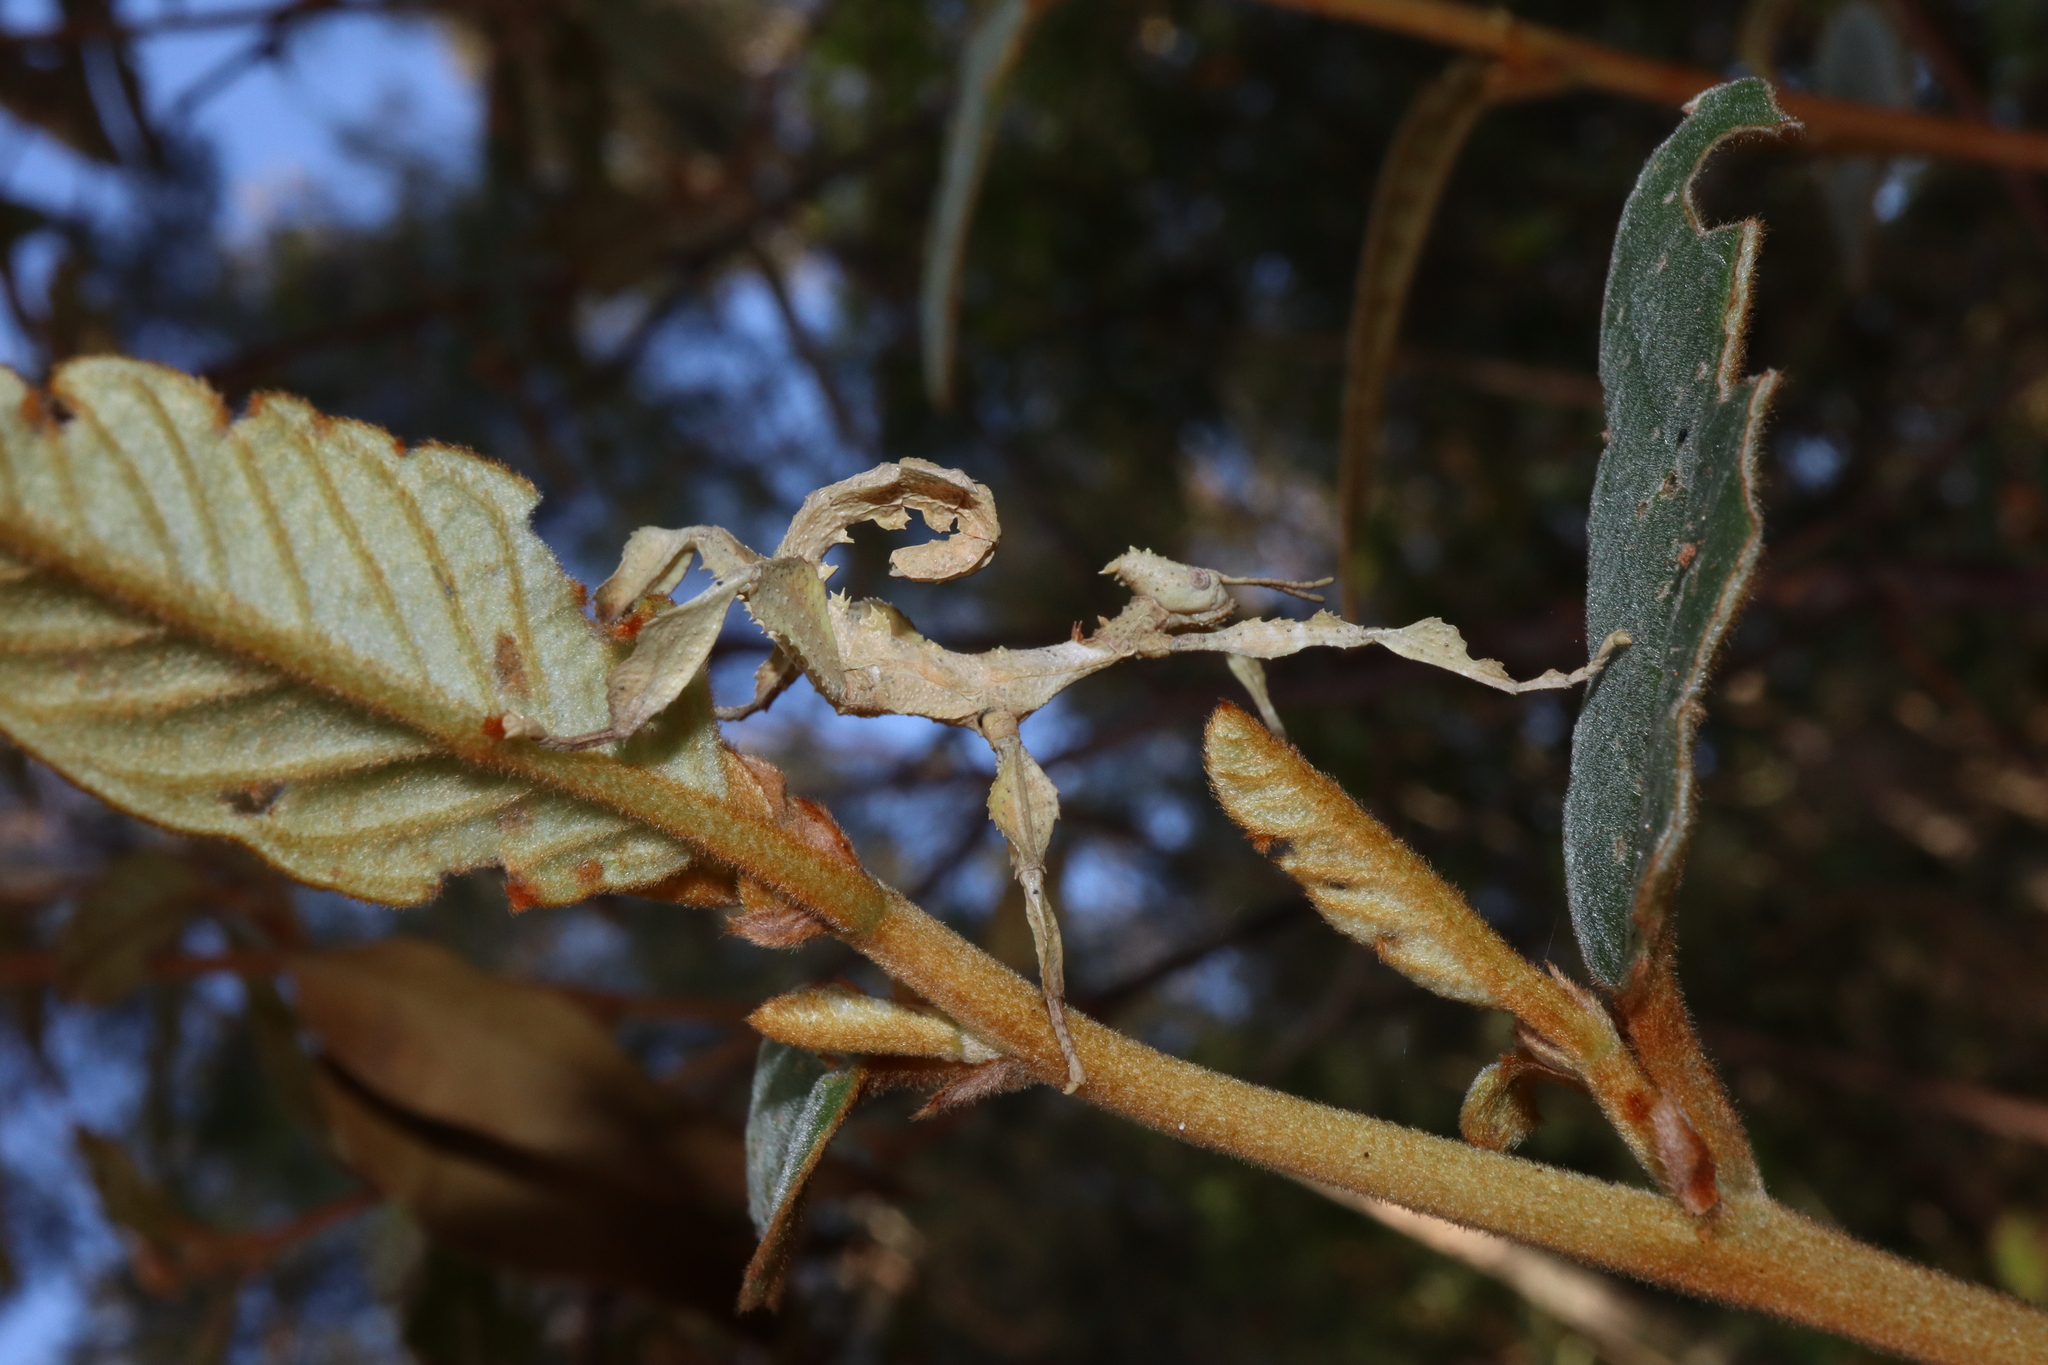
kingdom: Animalia
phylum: Arthropoda
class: Insecta
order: Phasmida
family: Phasmatidae
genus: Extatosoma
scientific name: Extatosoma tiaratum
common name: Macleay's spectre
